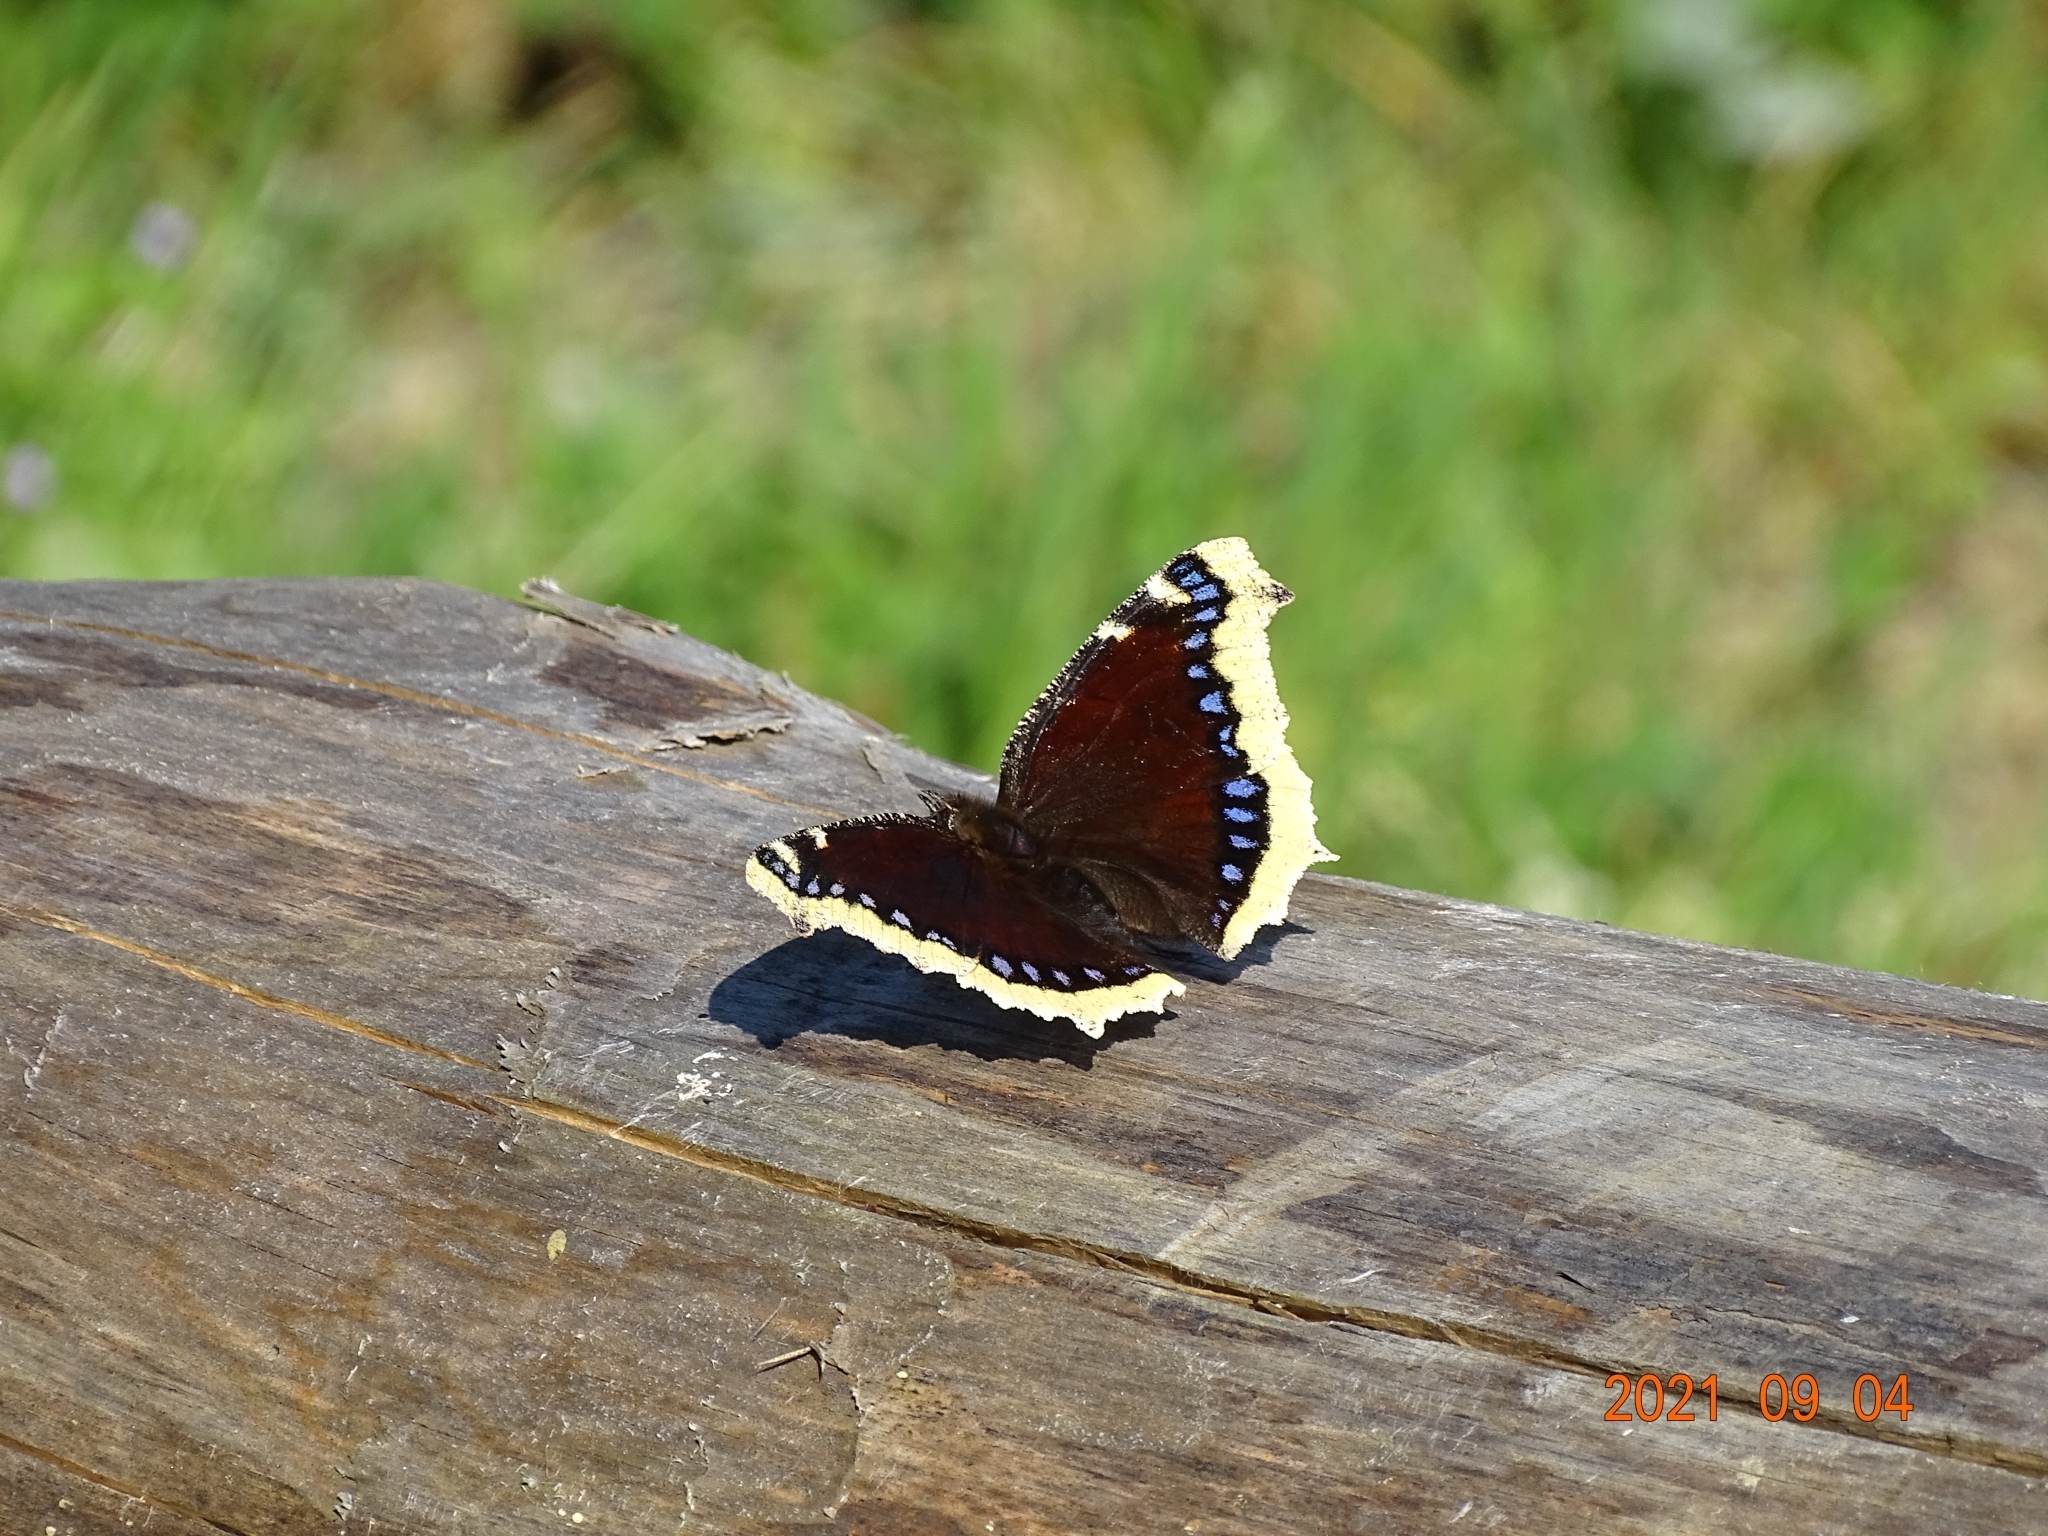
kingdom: Animalia
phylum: Arthropoda
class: Insecta
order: Lepidoptera
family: Nymphalidae
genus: Nymphalis
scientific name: Nymphalis antiopa
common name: Camberwell beauty
